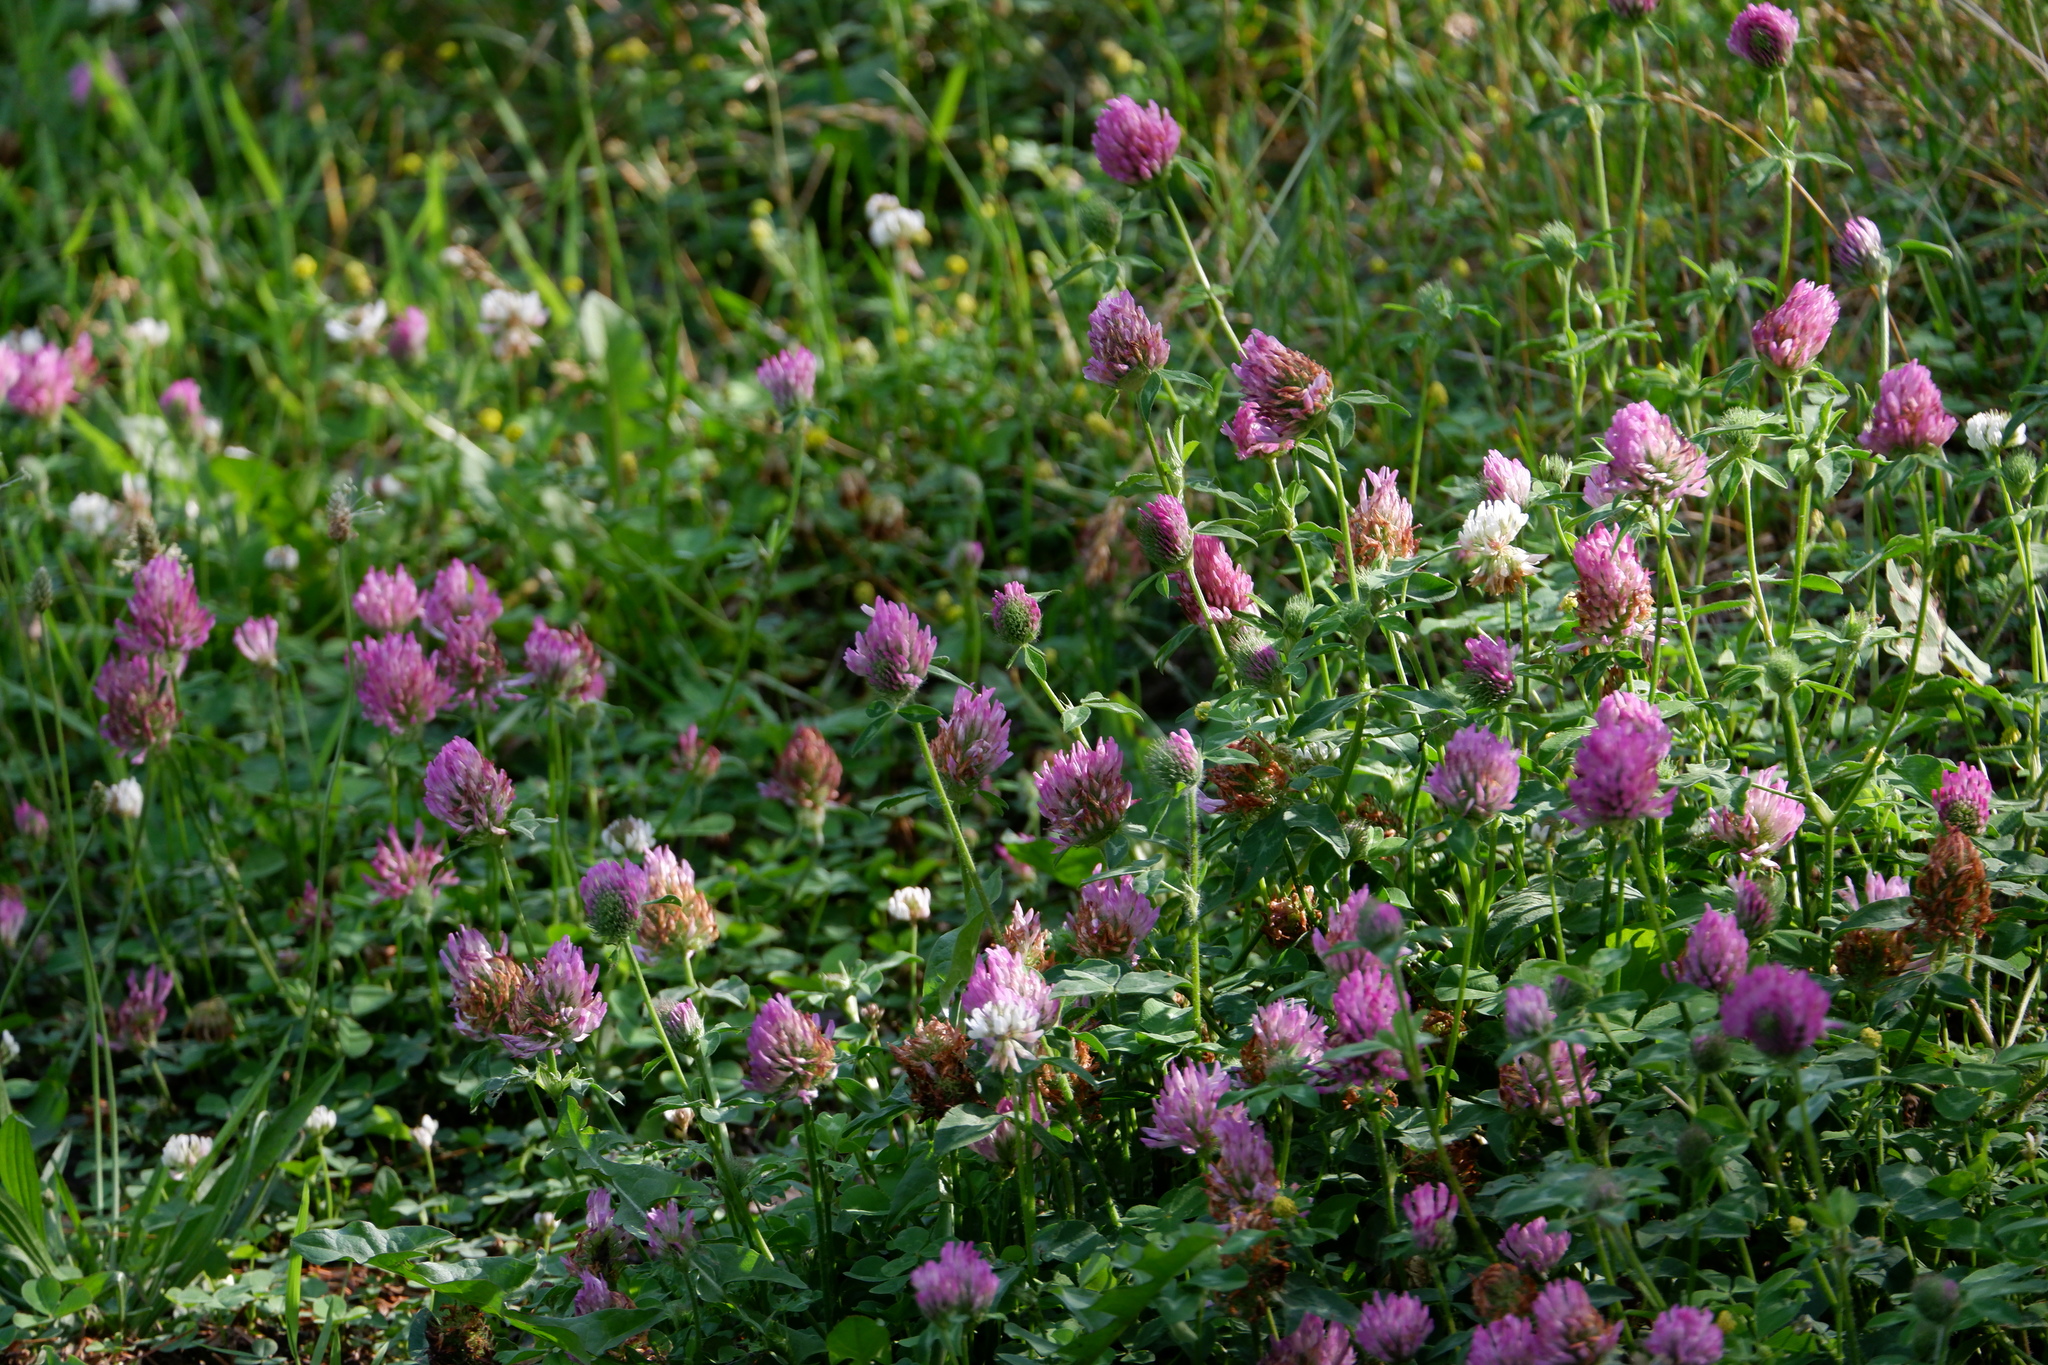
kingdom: Plantae
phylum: Tracheophyta
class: Magnoliopsida
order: Fabales
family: Fabaceae
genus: Trifolium
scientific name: Trifolium pratense
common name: Red clover
